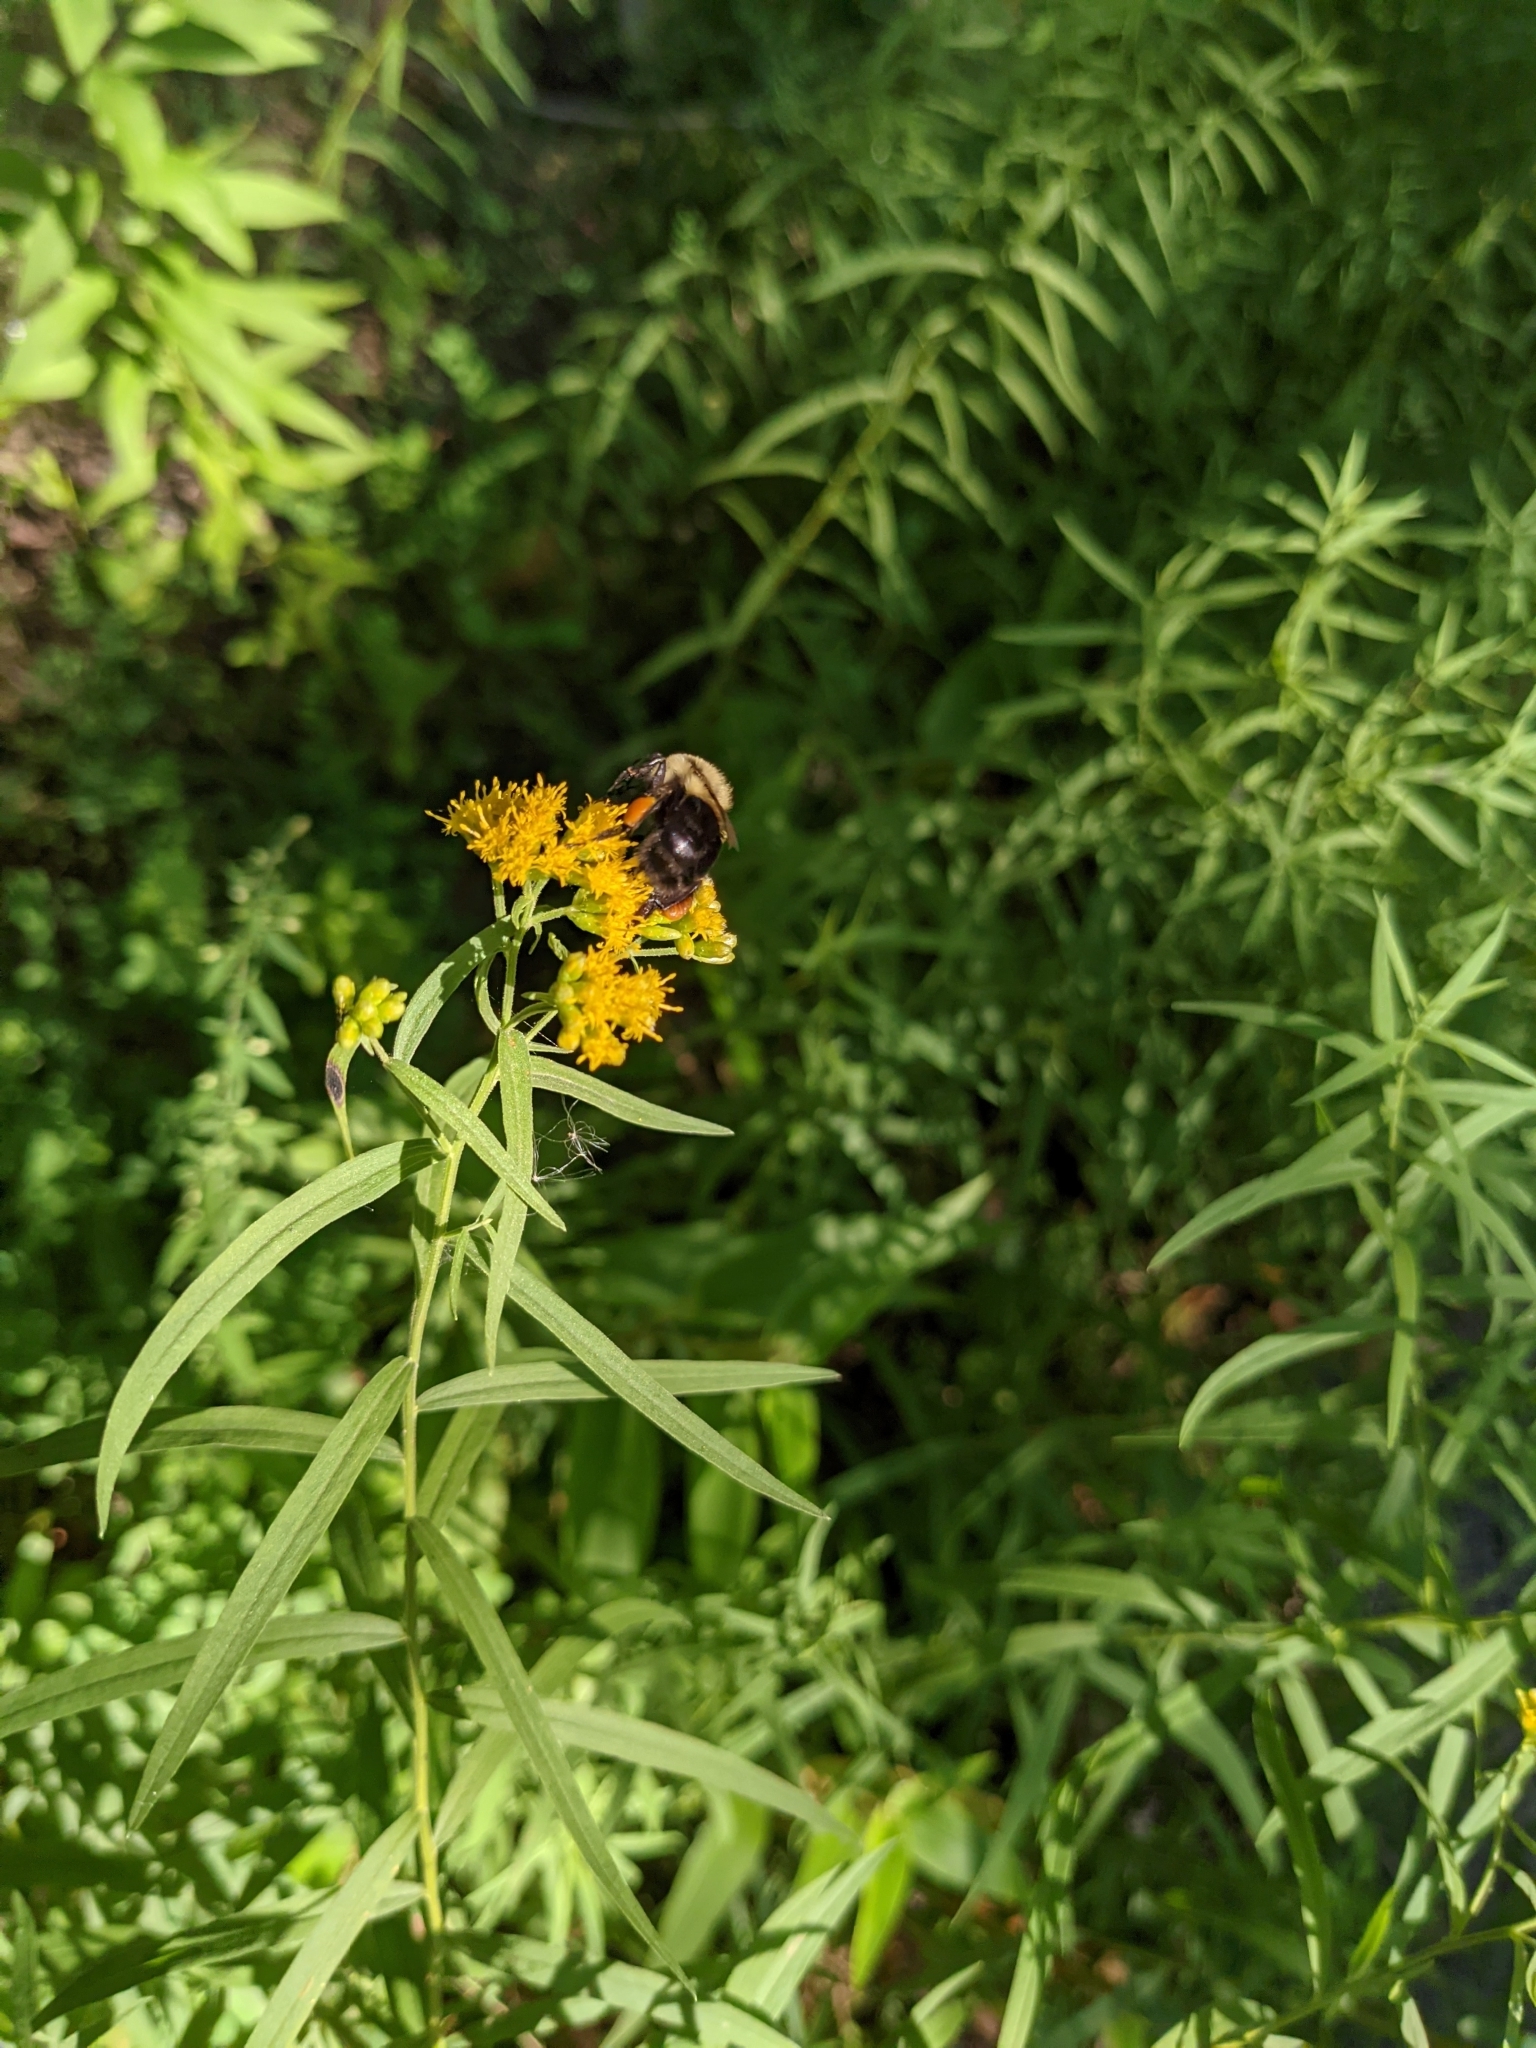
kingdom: Animalia
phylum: Arthropoda
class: Insecta
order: Hymenoptera
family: Apidae
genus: Bombus
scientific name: Bombus impatiens
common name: Common eastern bumble bee
